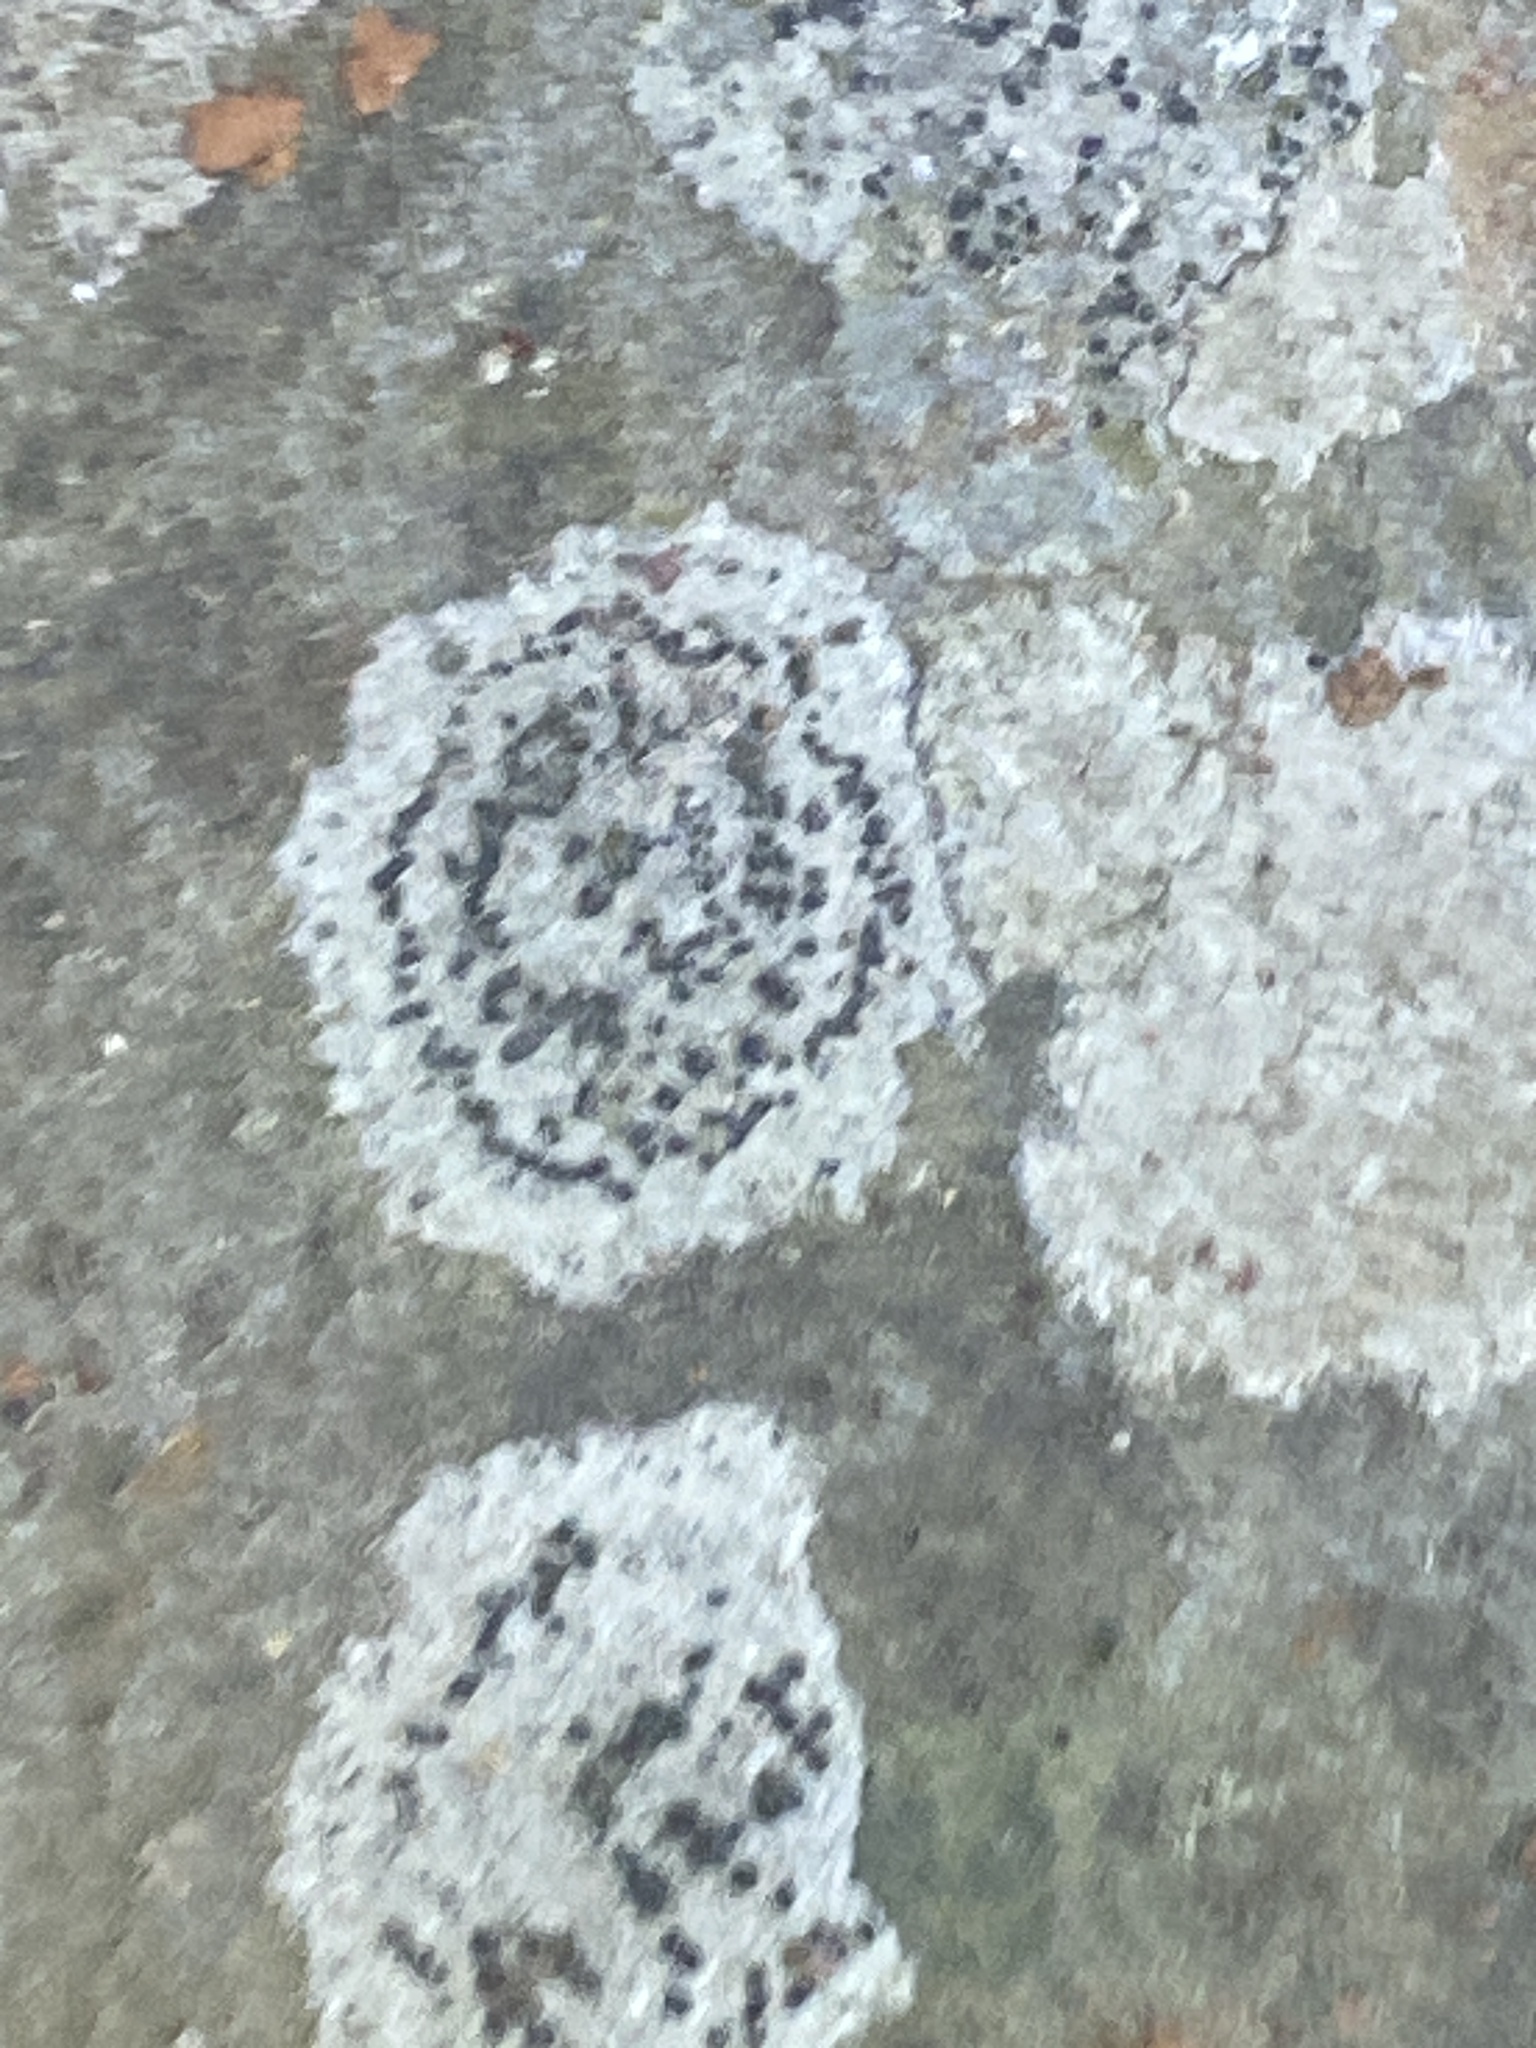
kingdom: Fungi
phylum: Ascomycota
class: Lecanoromycetes
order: Lecideales
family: Lecideaceae
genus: Porpidia
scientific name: Porpidia crustulata
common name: Concentric boulder lichen
